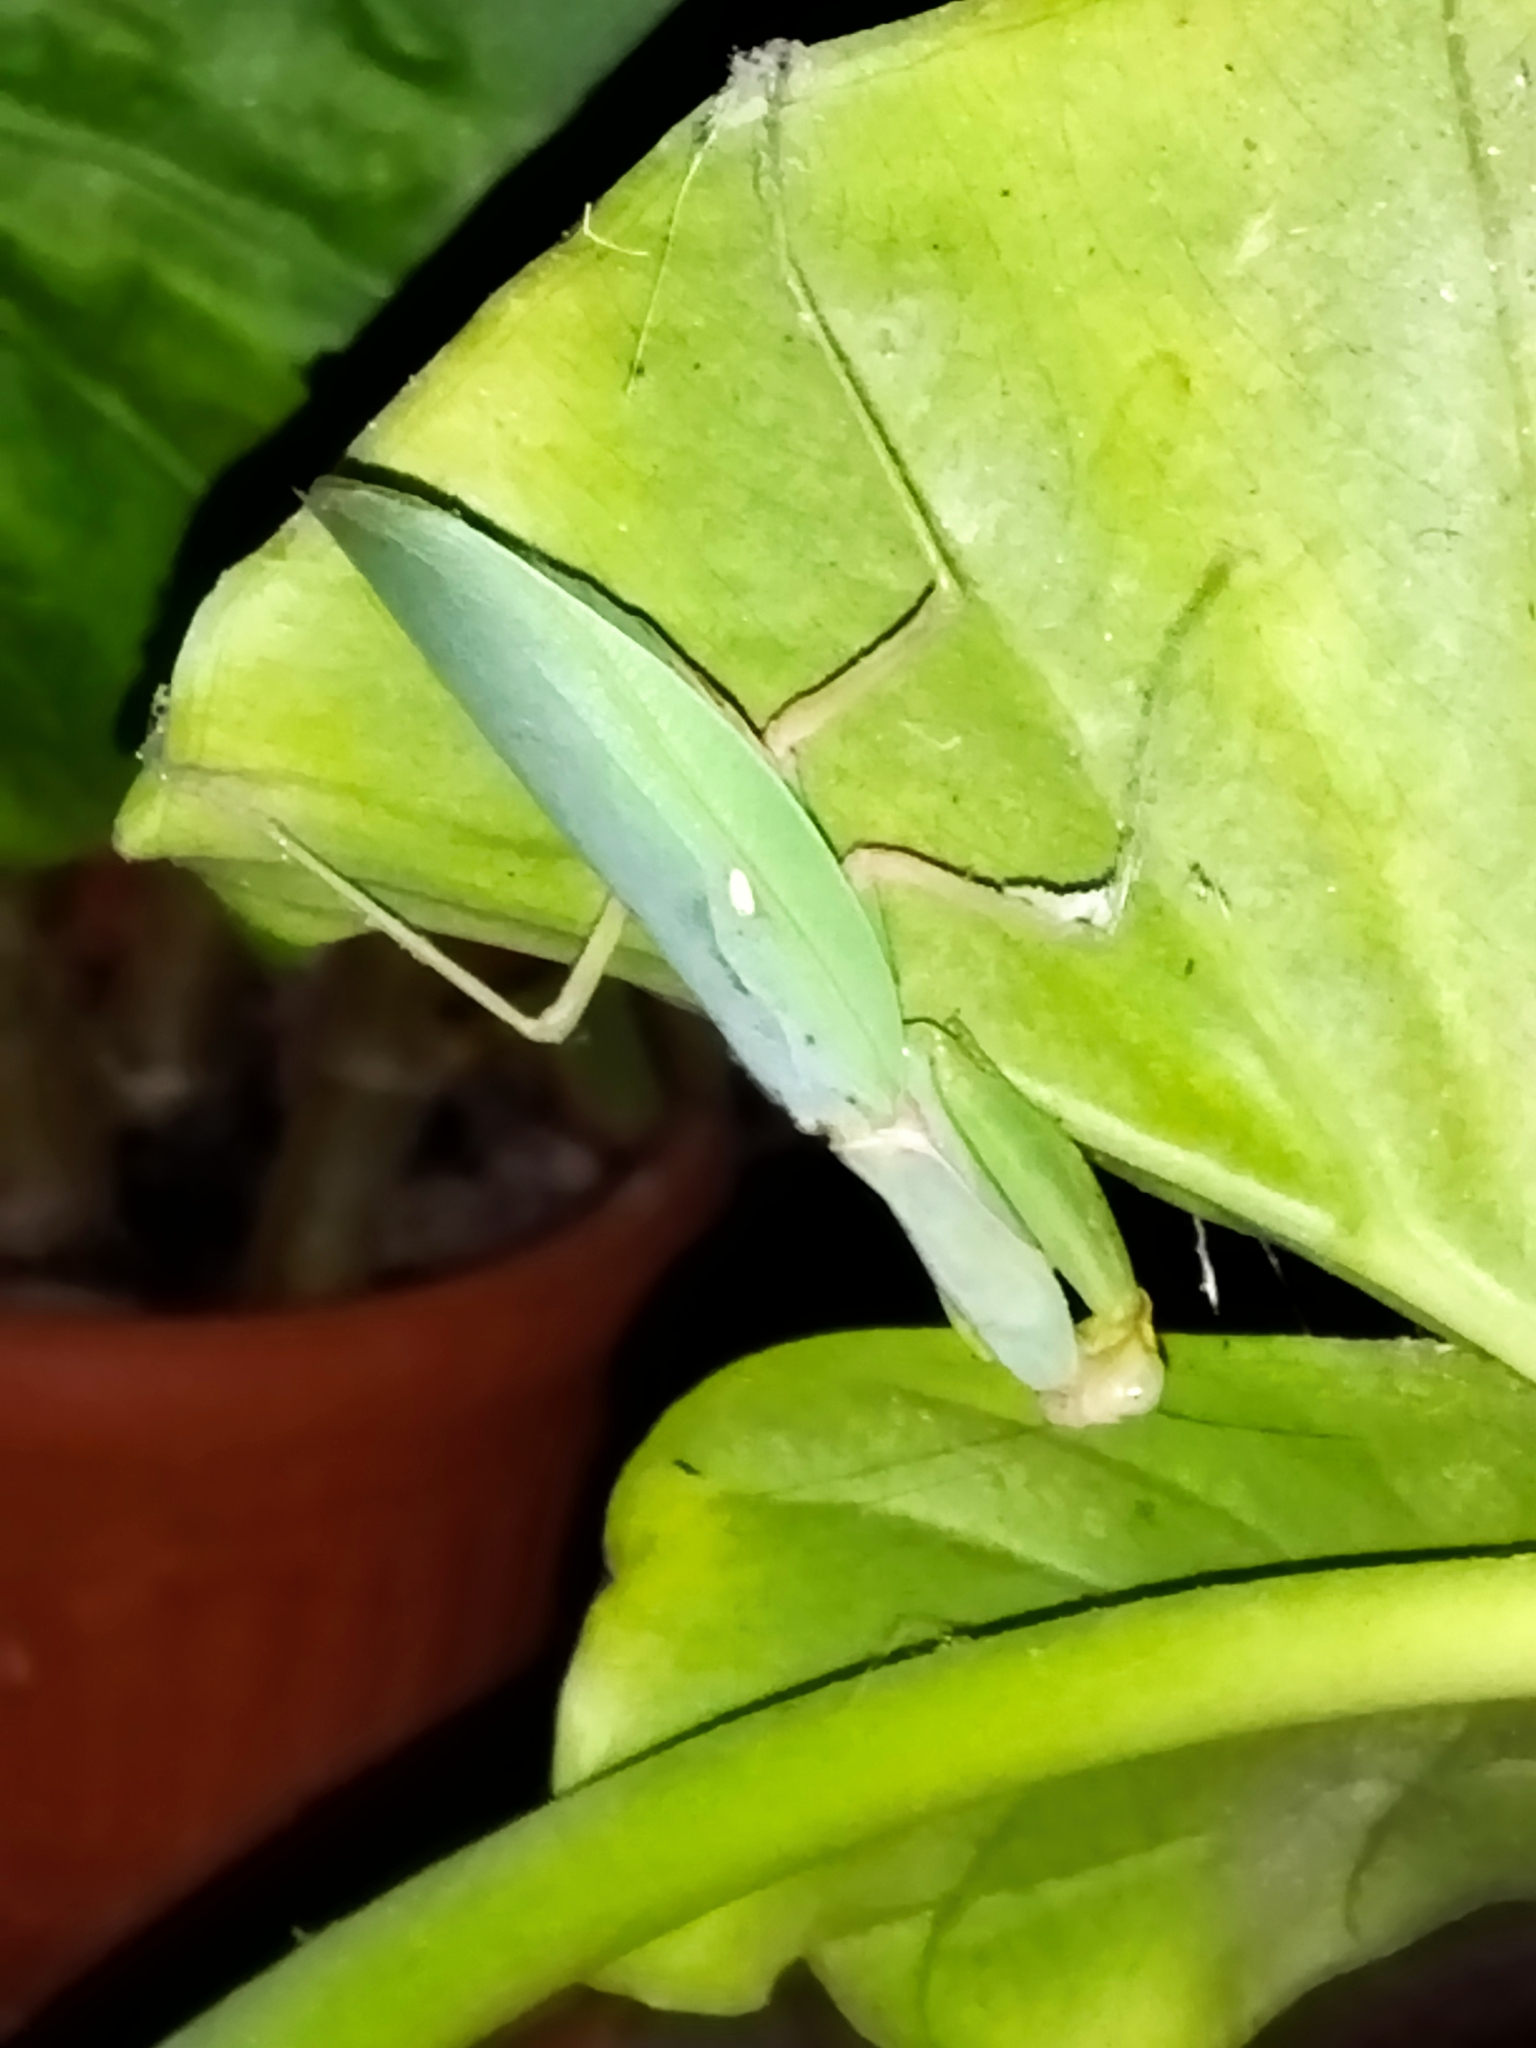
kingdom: Animalia
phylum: Arthropoda
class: Insecta
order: Mantodea
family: Mantidae
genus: Hierodula
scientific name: Hierodula transcaucasica
